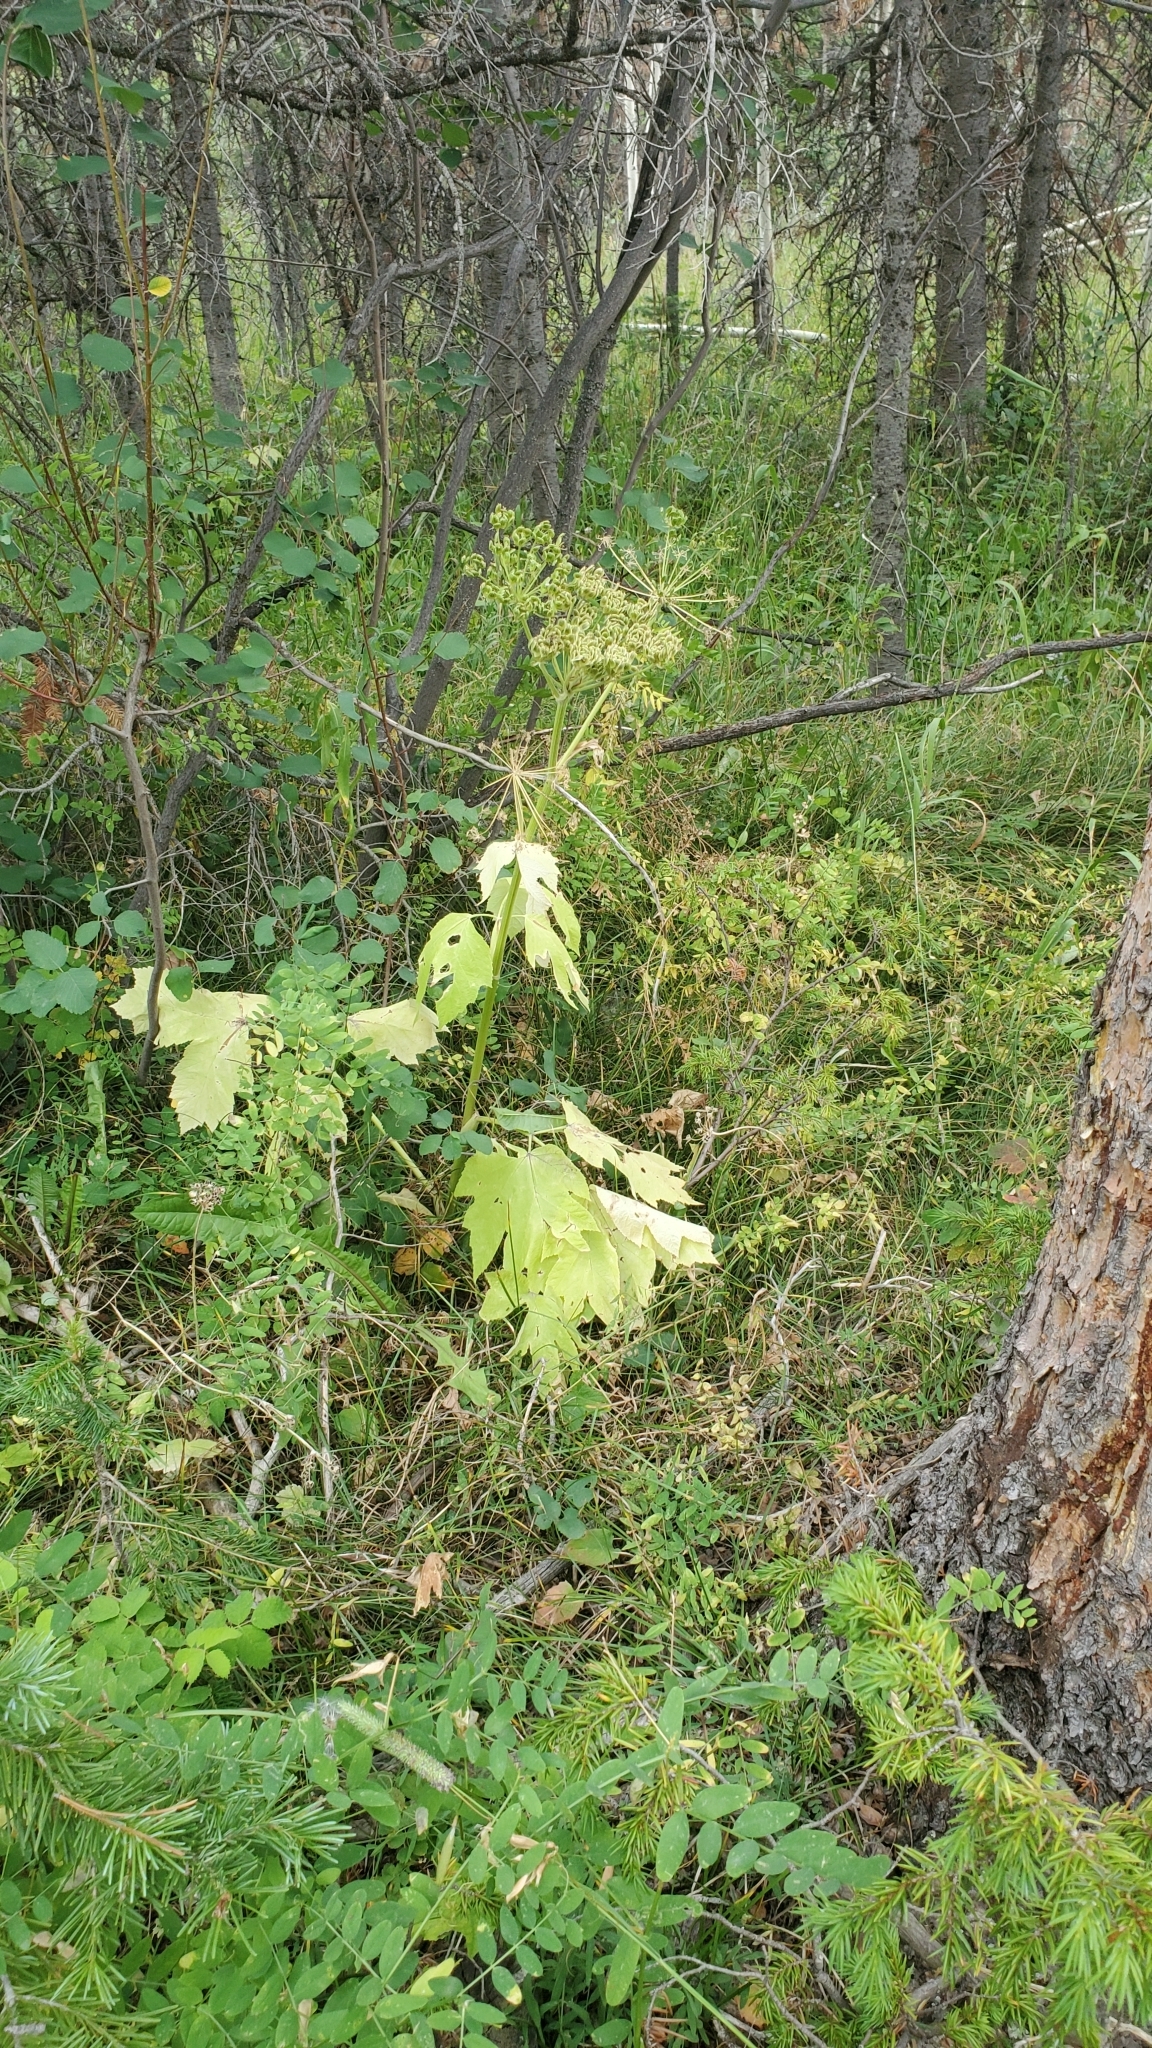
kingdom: Plantae
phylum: Tracheophyta
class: Magnoliopsida
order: Apiales
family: Apiaceae
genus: Heracleum
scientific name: Heracleum maximum
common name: American cow parsnip
